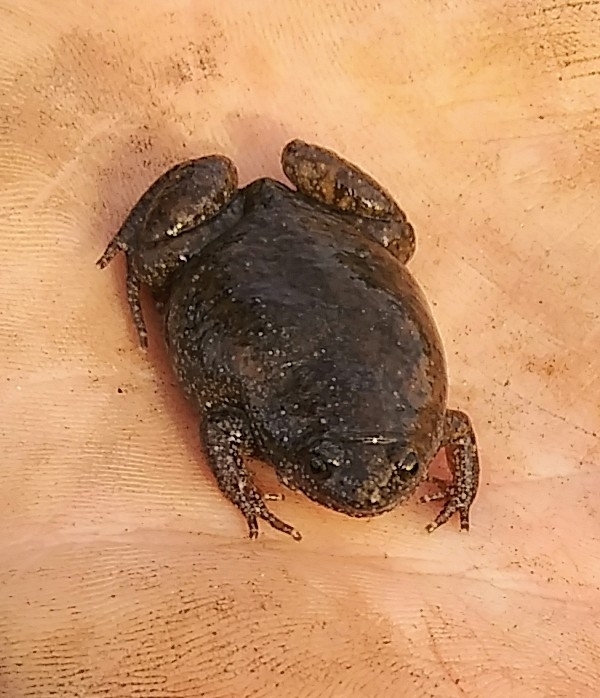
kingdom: Animalia
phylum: Chordata
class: Amphibia
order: Anura
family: Microhylidae
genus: Gastrophryne
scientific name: Gastrophryne carolinensis
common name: Eastern narrowmouth toad
